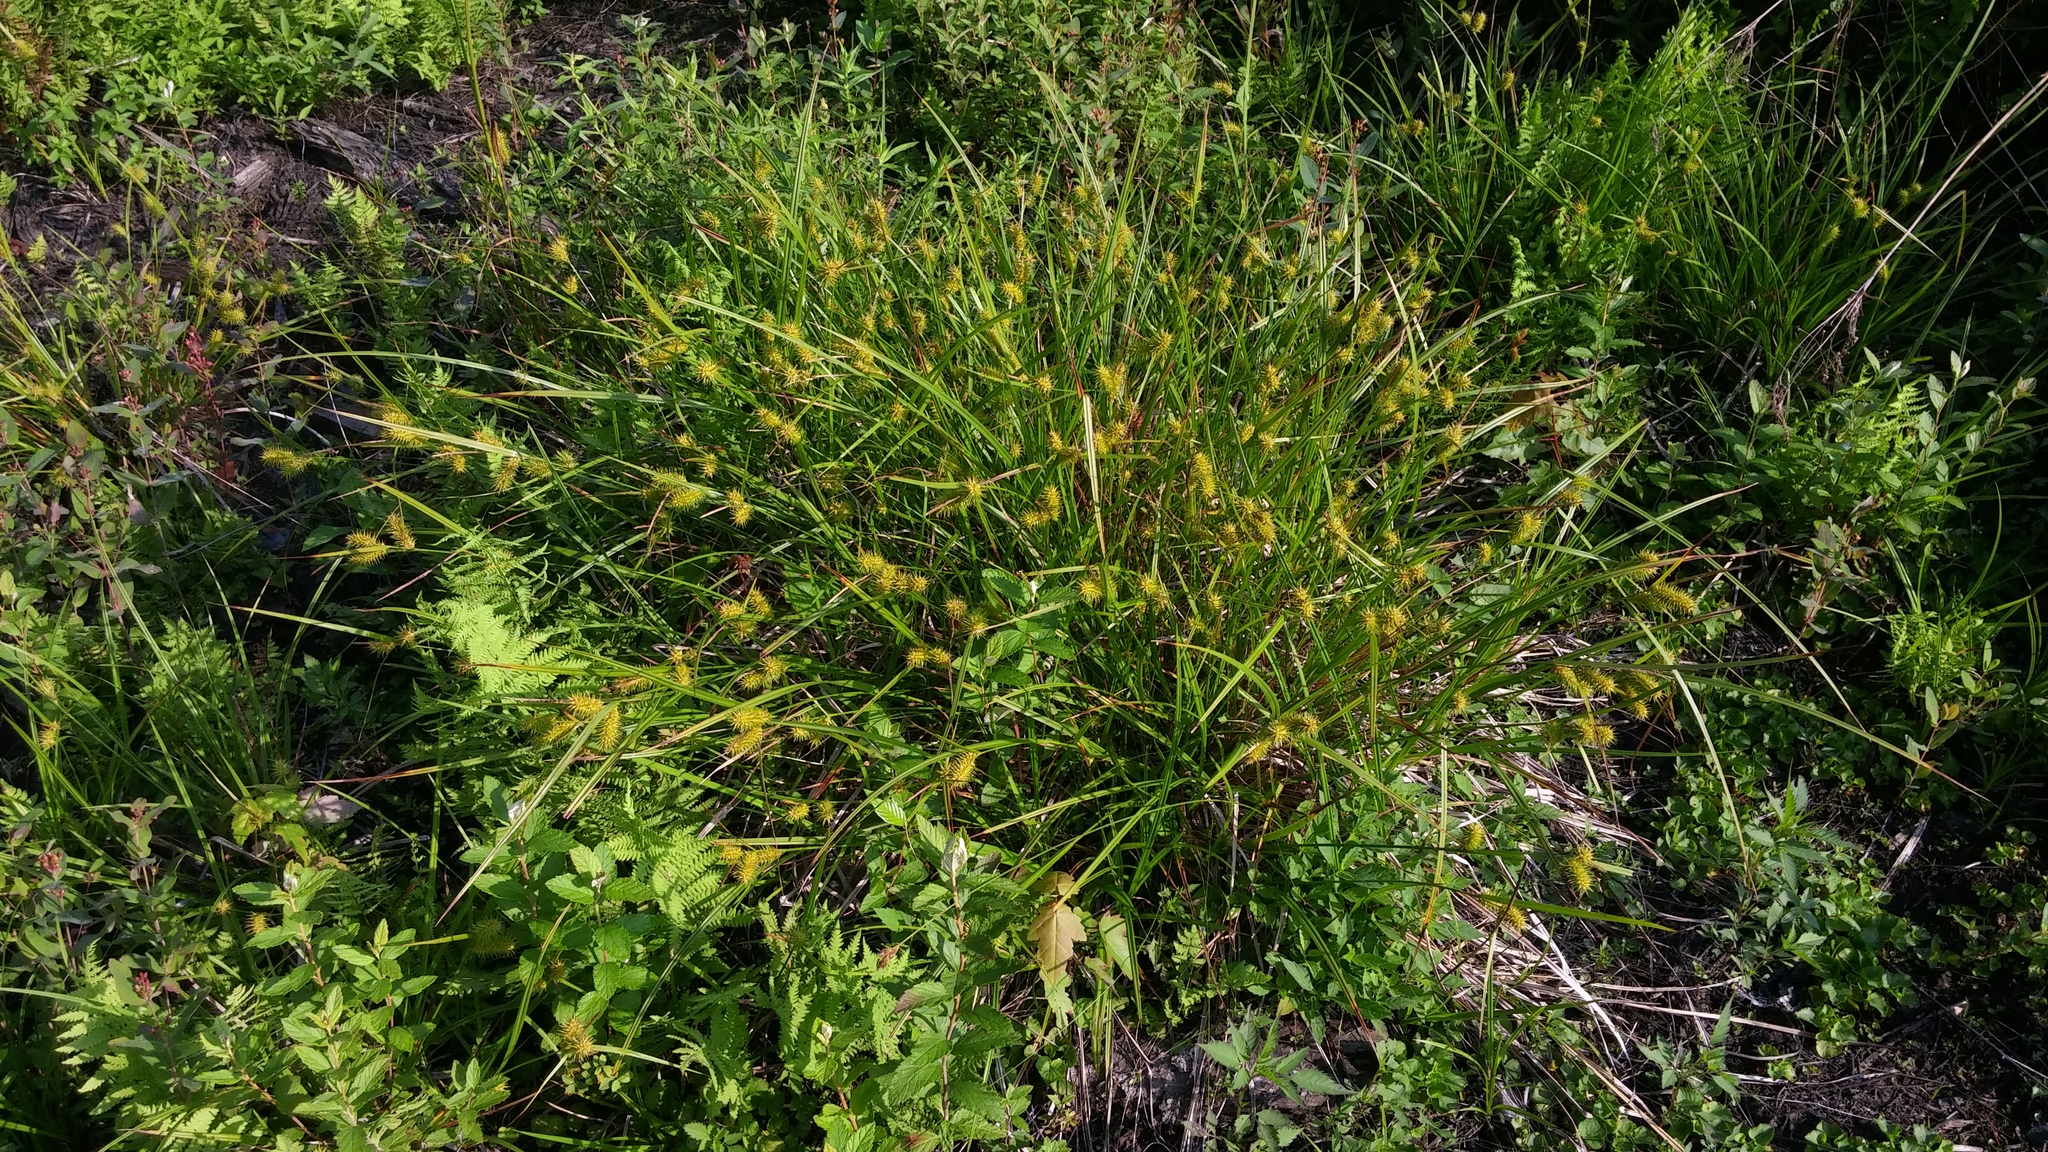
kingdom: Plantae
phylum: Tracheophyta
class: Liliopsida
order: Poales
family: Cyperaceae
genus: Carex
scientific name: Carex lurida
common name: Sallow sedge
